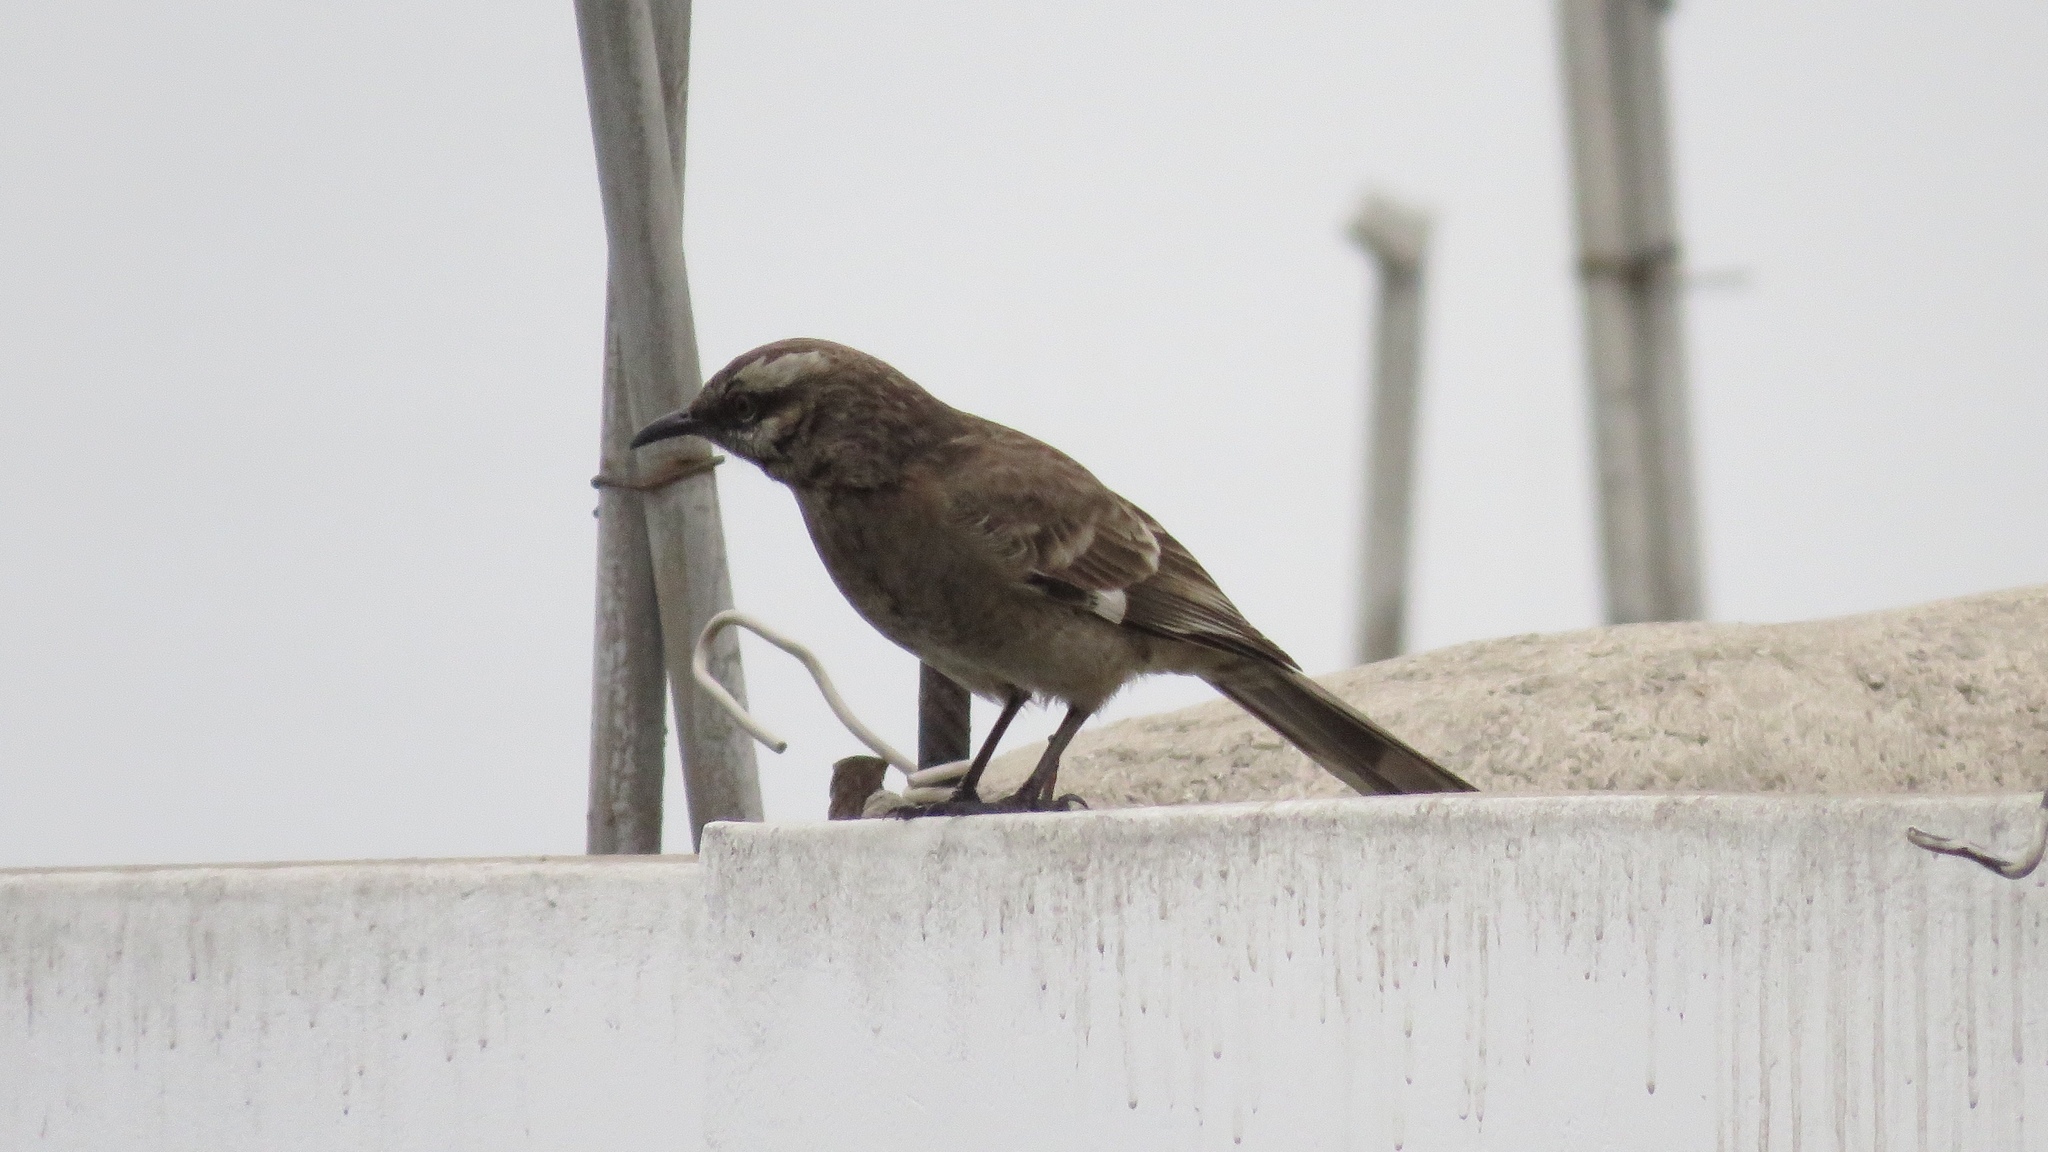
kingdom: Animalia
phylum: Chordata
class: Aves
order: Passeriformes
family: Mimidae
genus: Mimus
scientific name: Mimus longicaudatus
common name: Long-tailed mockingbird
